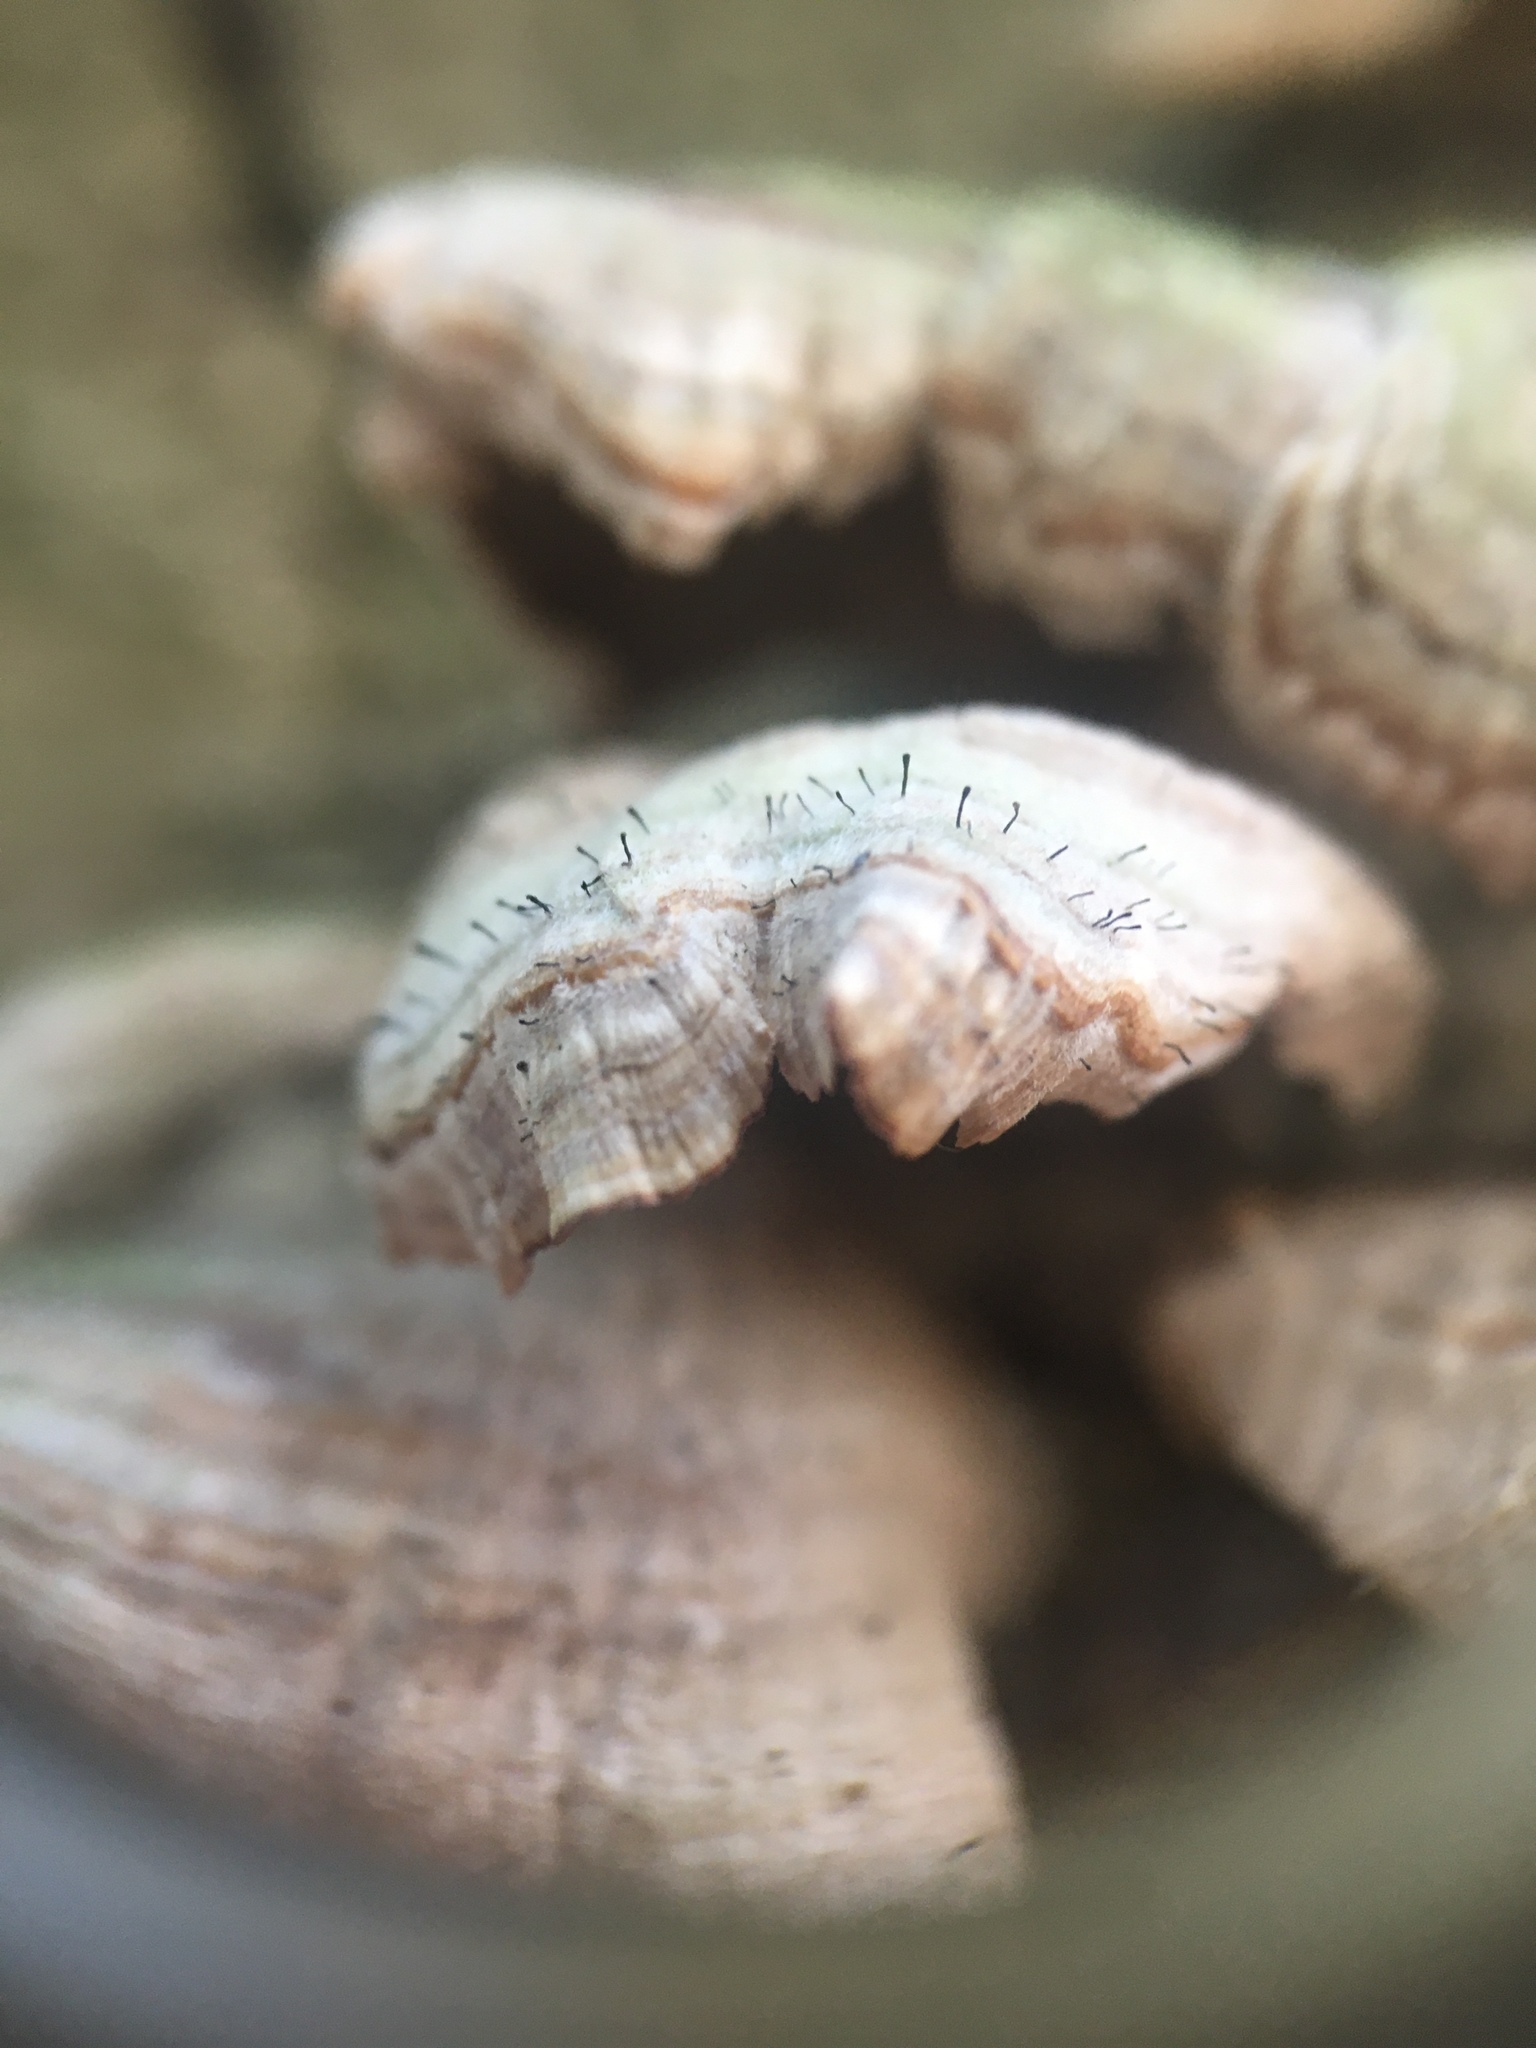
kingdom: Fungi
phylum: Ascomycota
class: Eurotiomycetes
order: Mycocaliciales
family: Mycocaliciaceae
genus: Phaeocalicium
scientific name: Phaeocalicium polyporaeum
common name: Fairy pins
